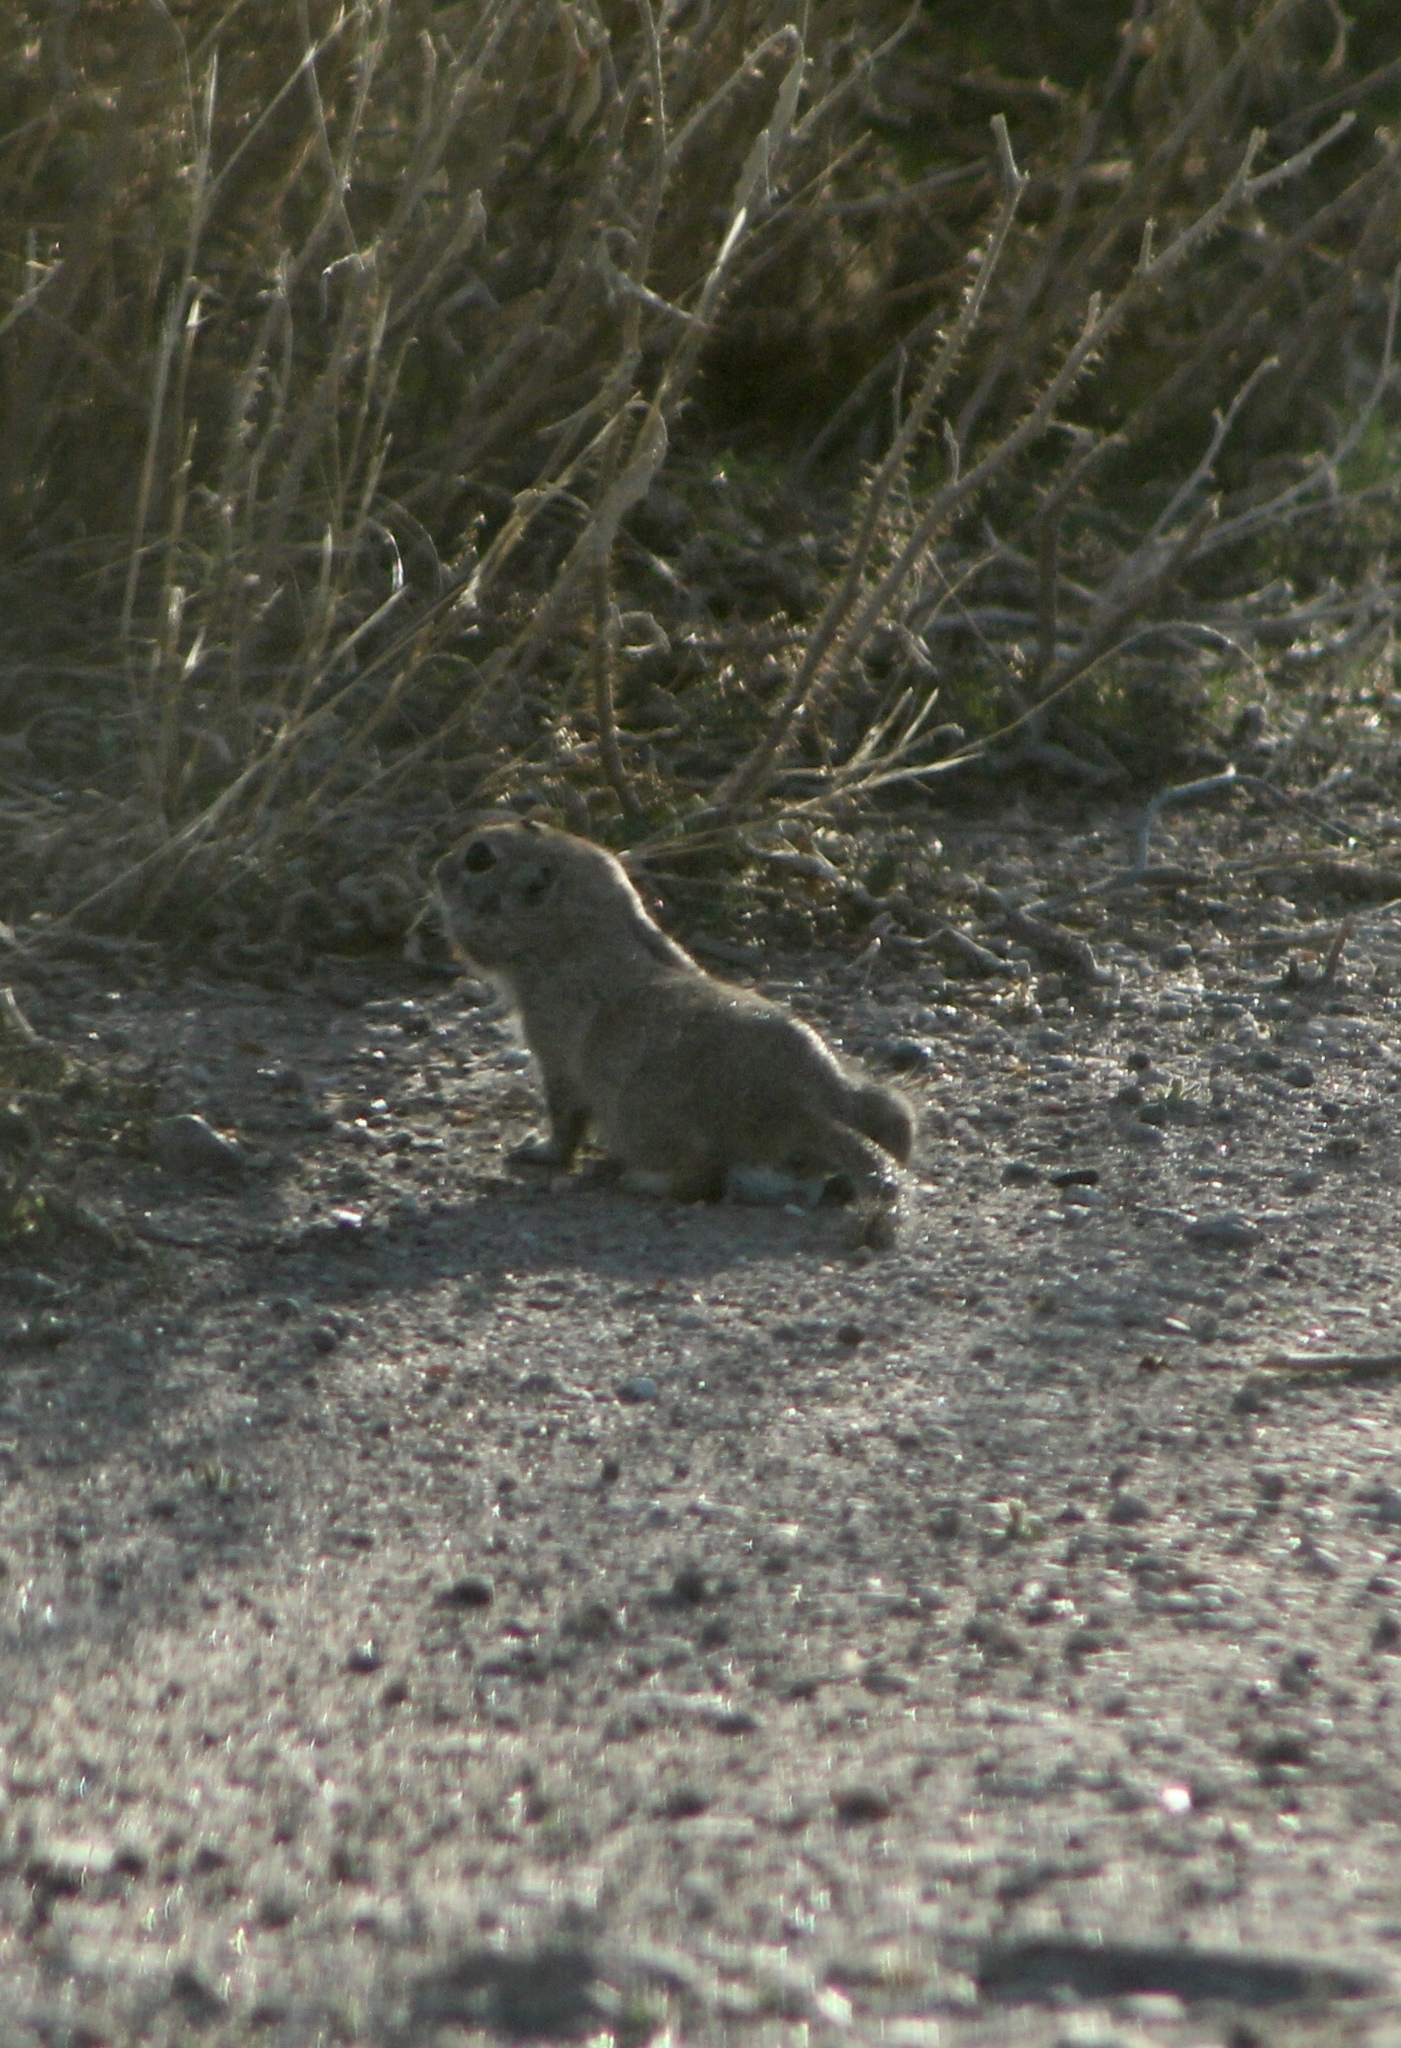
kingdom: Animalia
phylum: Chordata
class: Mammalia
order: Rodentia
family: Sciuridae
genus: Xerospermophilus
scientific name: Xerospermophilus tereticaudus
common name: Round-tailed ground squirrel
